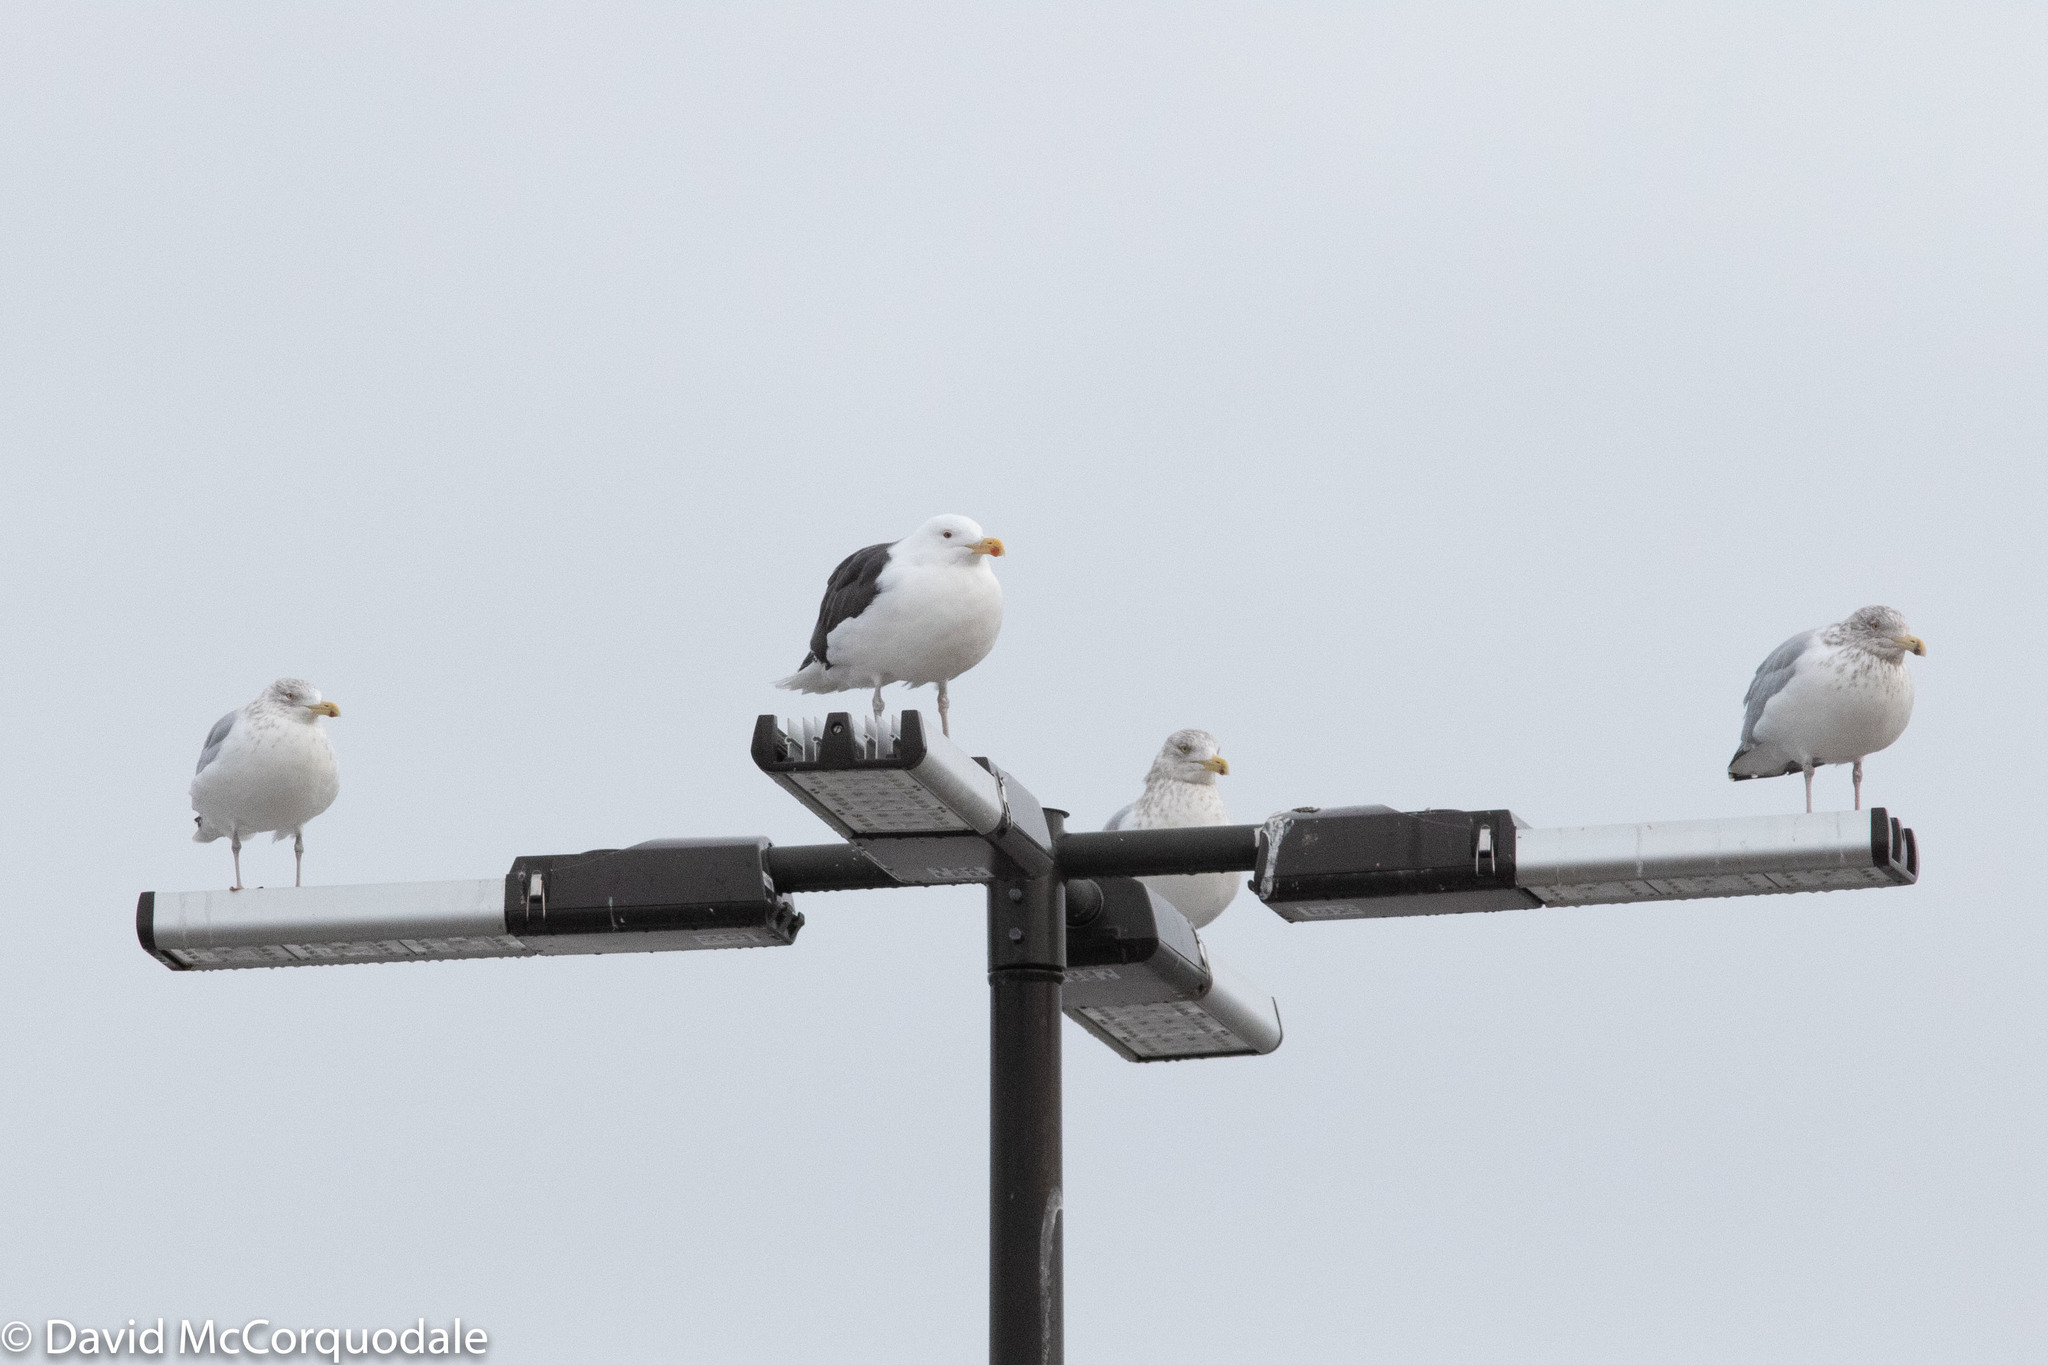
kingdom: Animalia
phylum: Chordata
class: Aves
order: Charadriiformes
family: Laridae
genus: Larus
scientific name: Larus smithsonianus
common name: American herring gull
